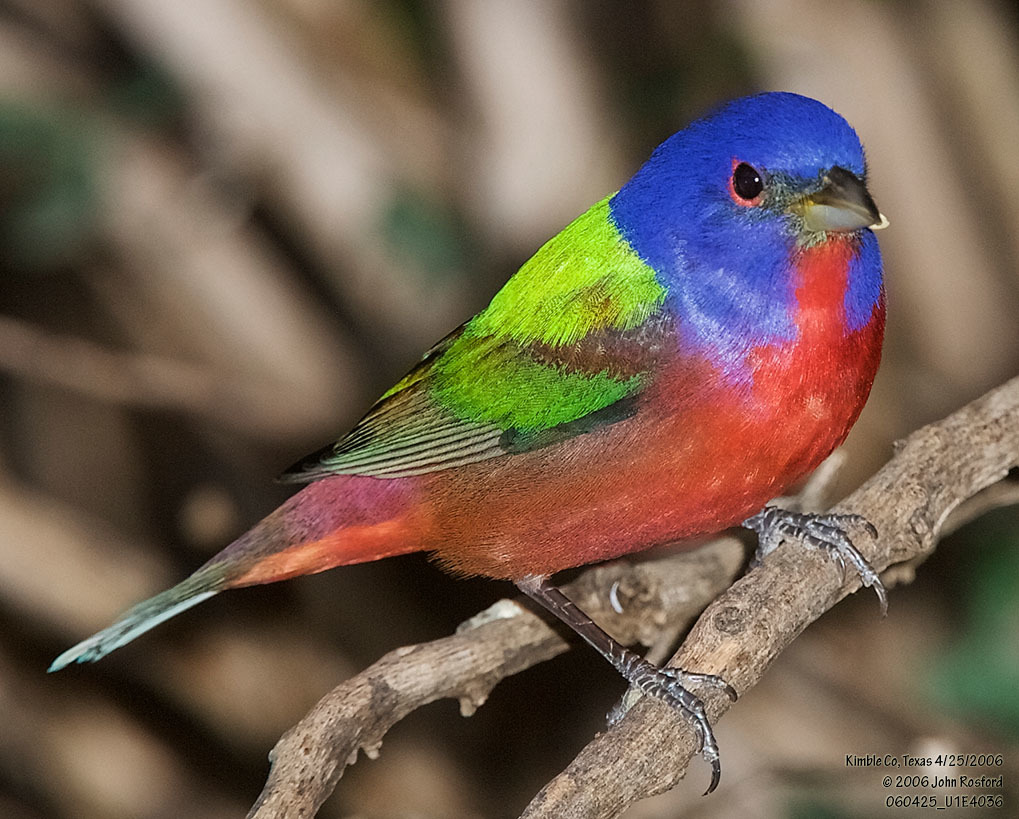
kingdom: Animalia
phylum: Chordata
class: Aves
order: Passeriformes
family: Cardinalidae
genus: Passerina
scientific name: Passerina ciris
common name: Painted bunting
